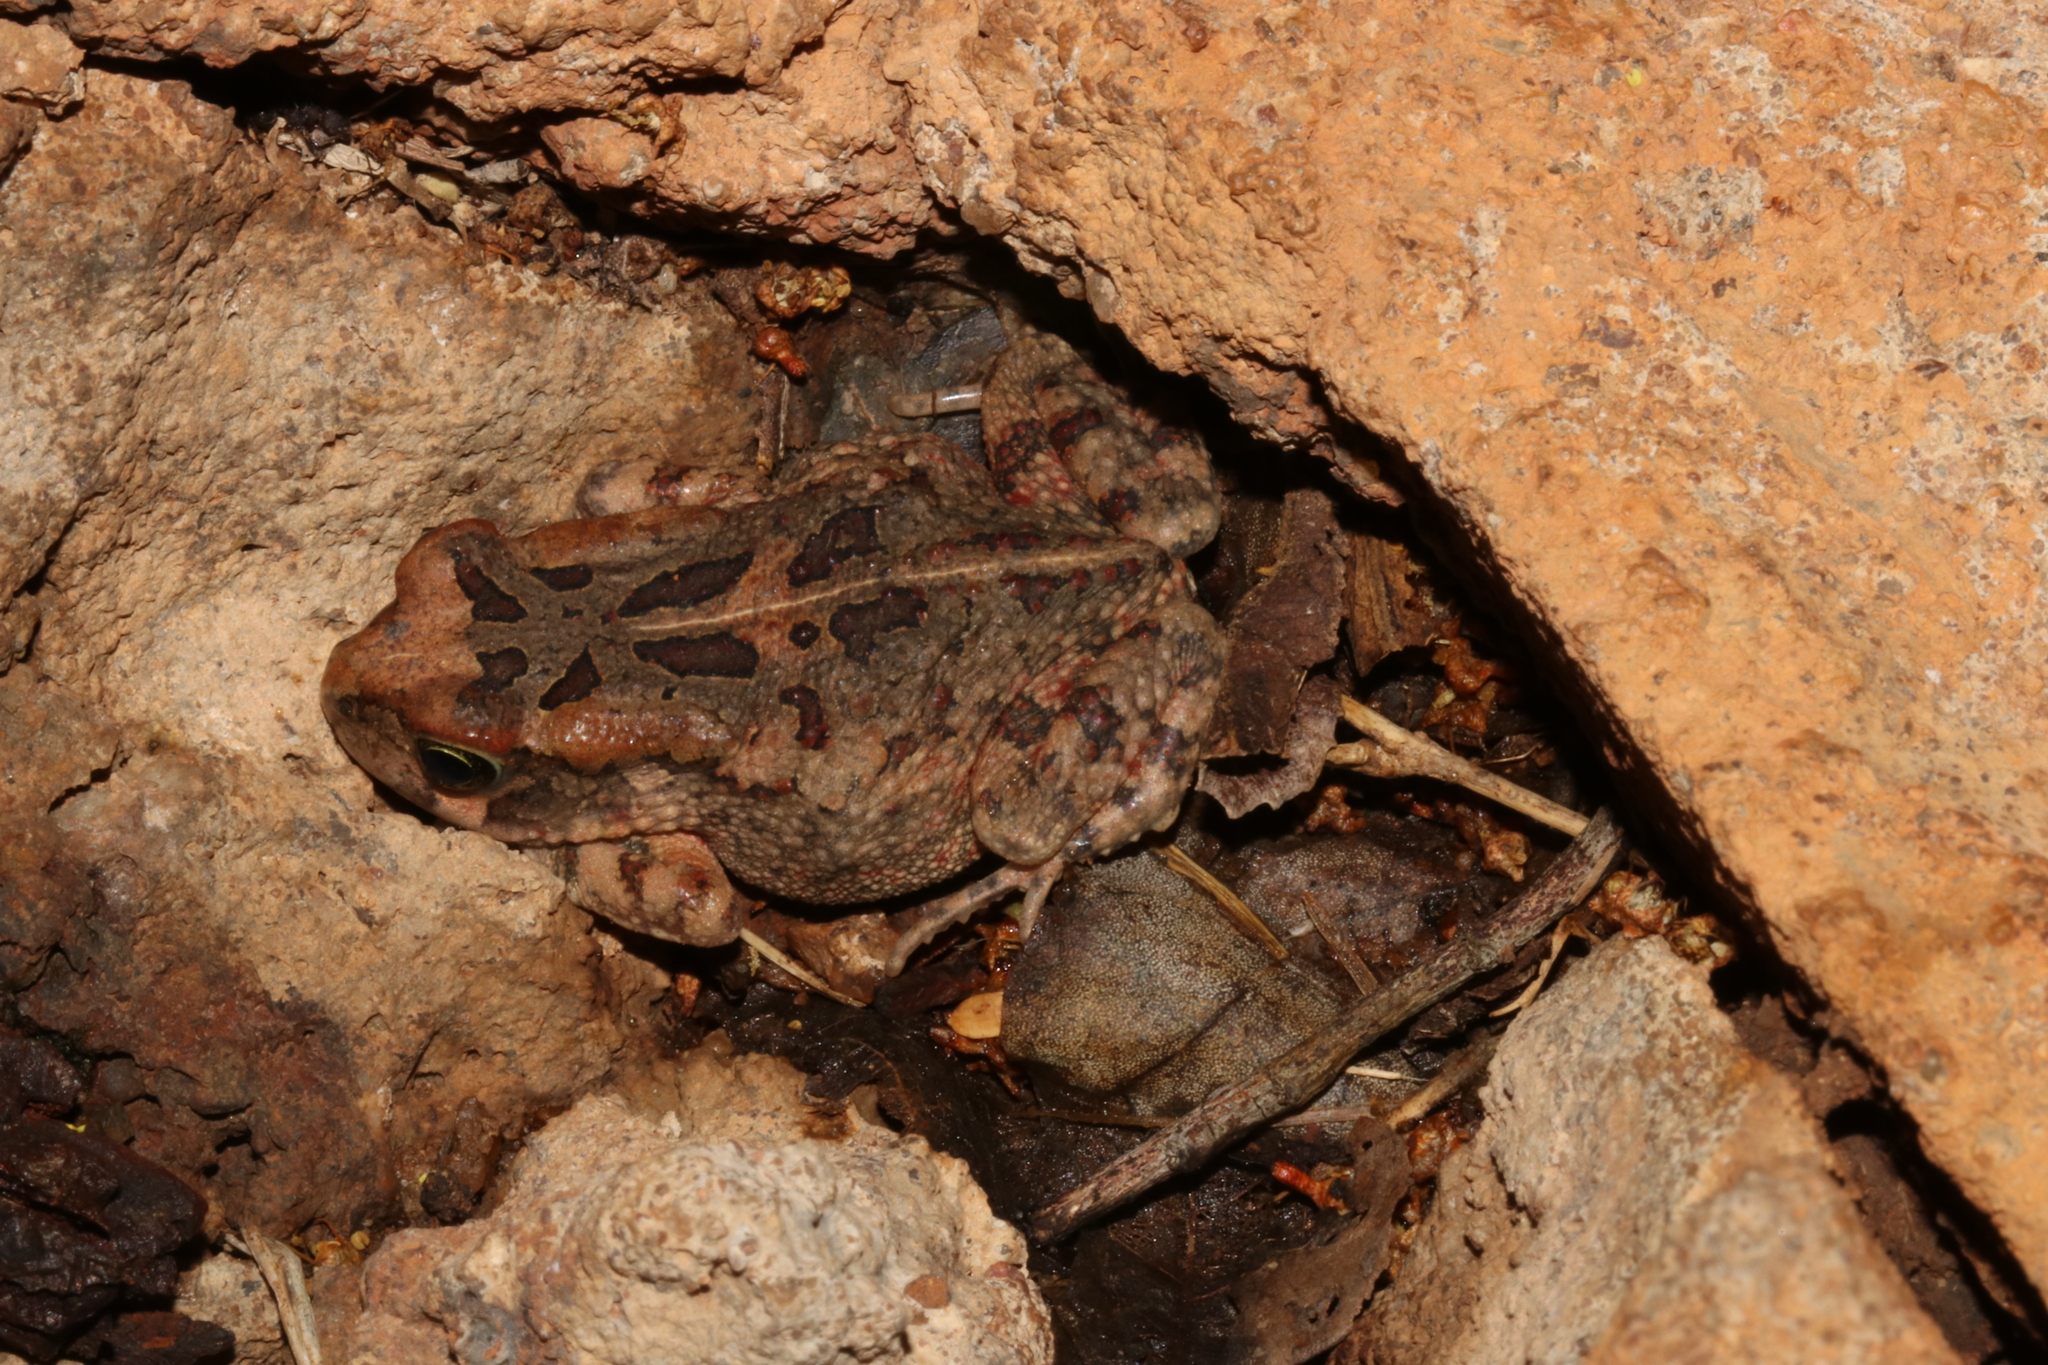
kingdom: Animalia
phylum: Chordata
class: Amphibia
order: Anura
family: Bufonidae
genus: Sclerophrys
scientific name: Sclerophrys garmani
